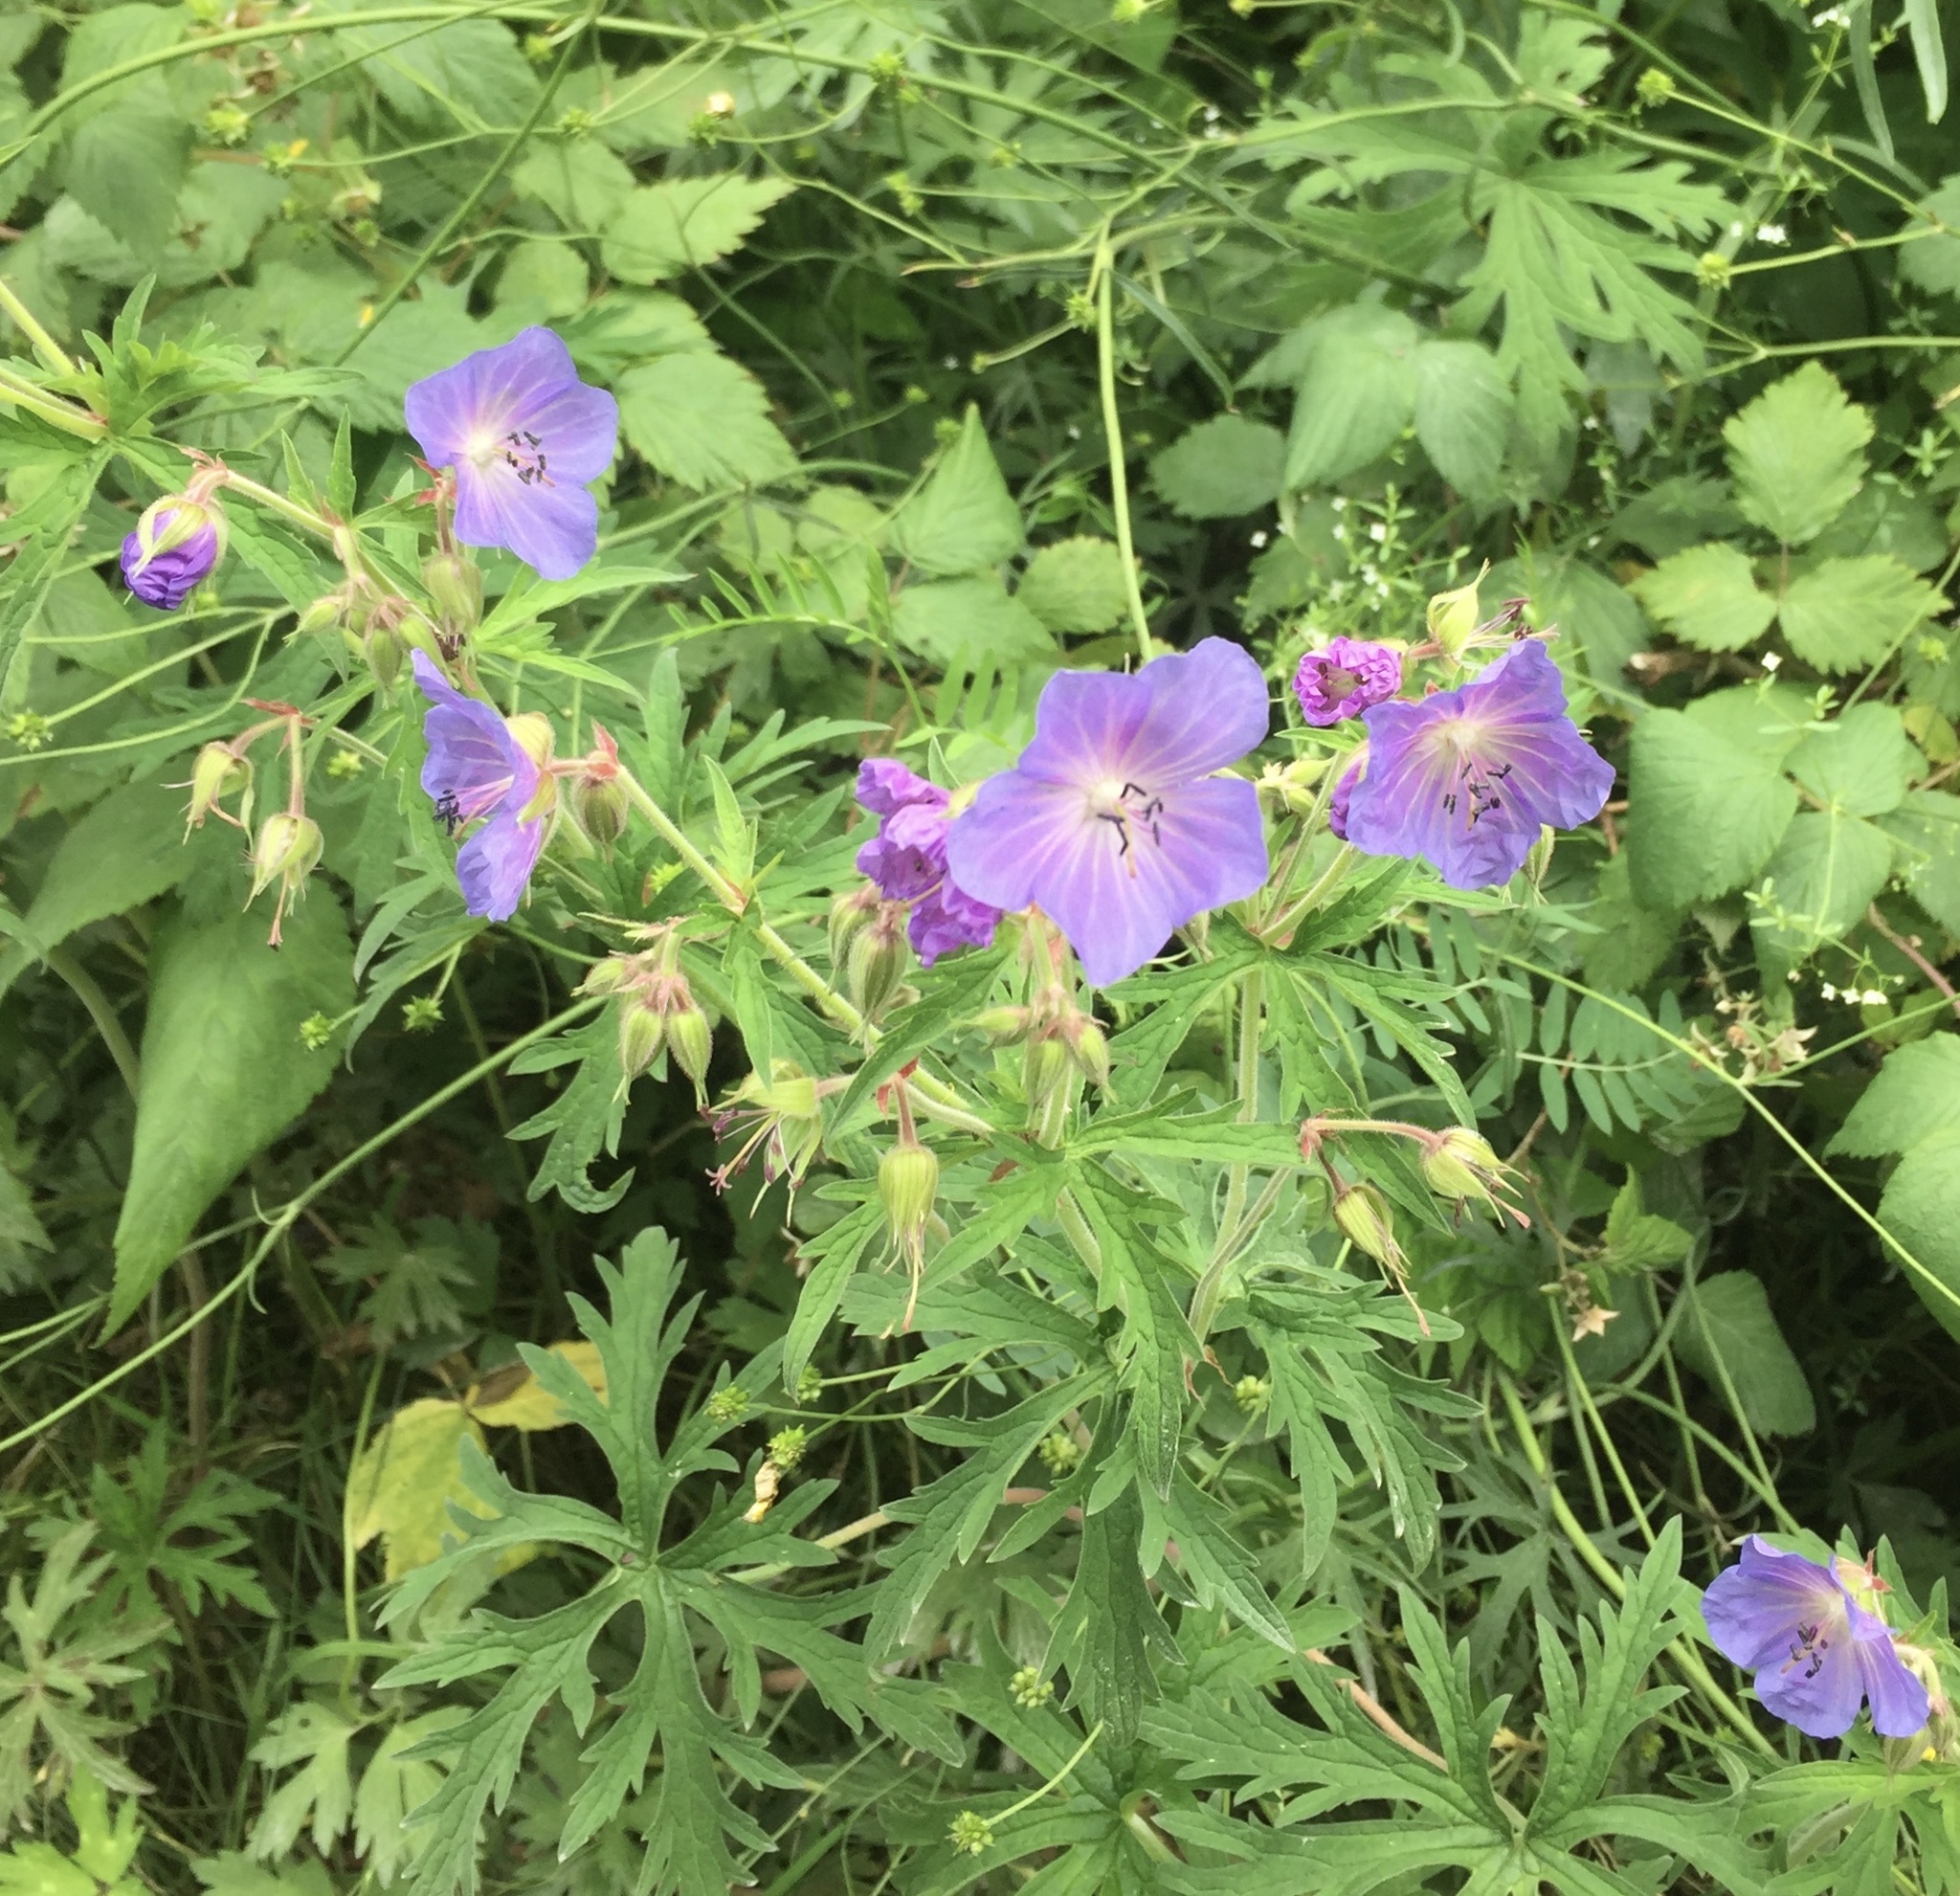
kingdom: Plantae
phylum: Tracheophyta
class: Magnoliopsida
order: Geraniales
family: Geraniaceae
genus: Geranium
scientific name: Geranium pratense
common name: Meadow crane's-bill
